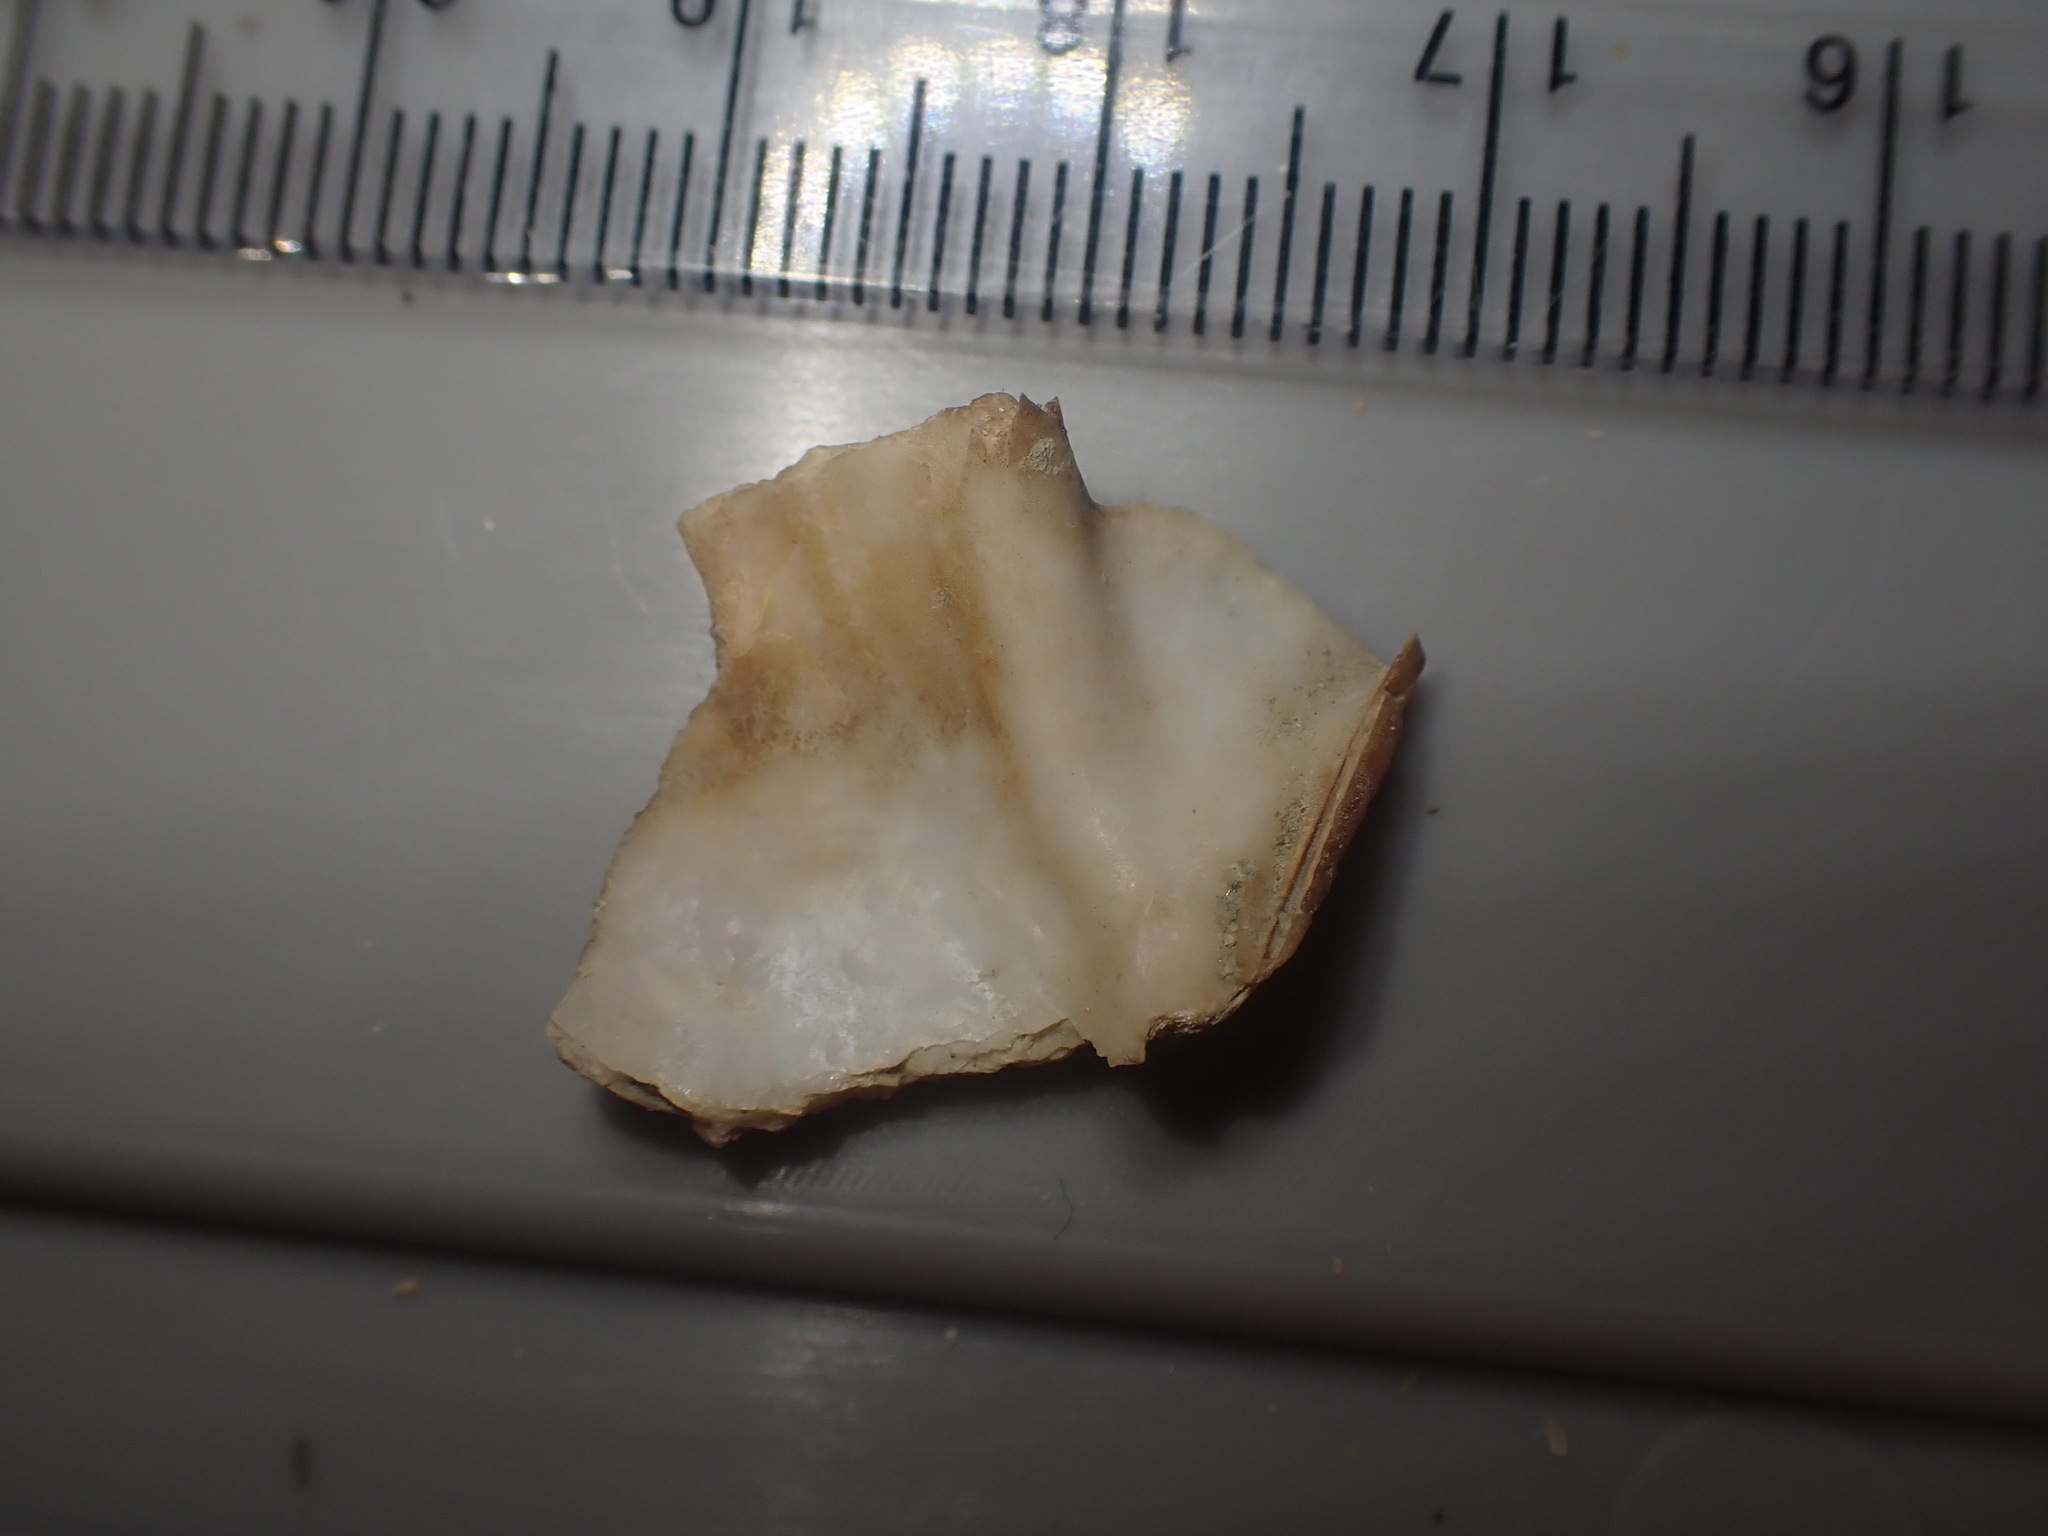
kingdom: Animalia
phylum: Mollusca
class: Bivalvia
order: Pectinida
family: Pectinidae
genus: Pecten
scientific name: Pecten novaezelandiae
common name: New zealand scallop
